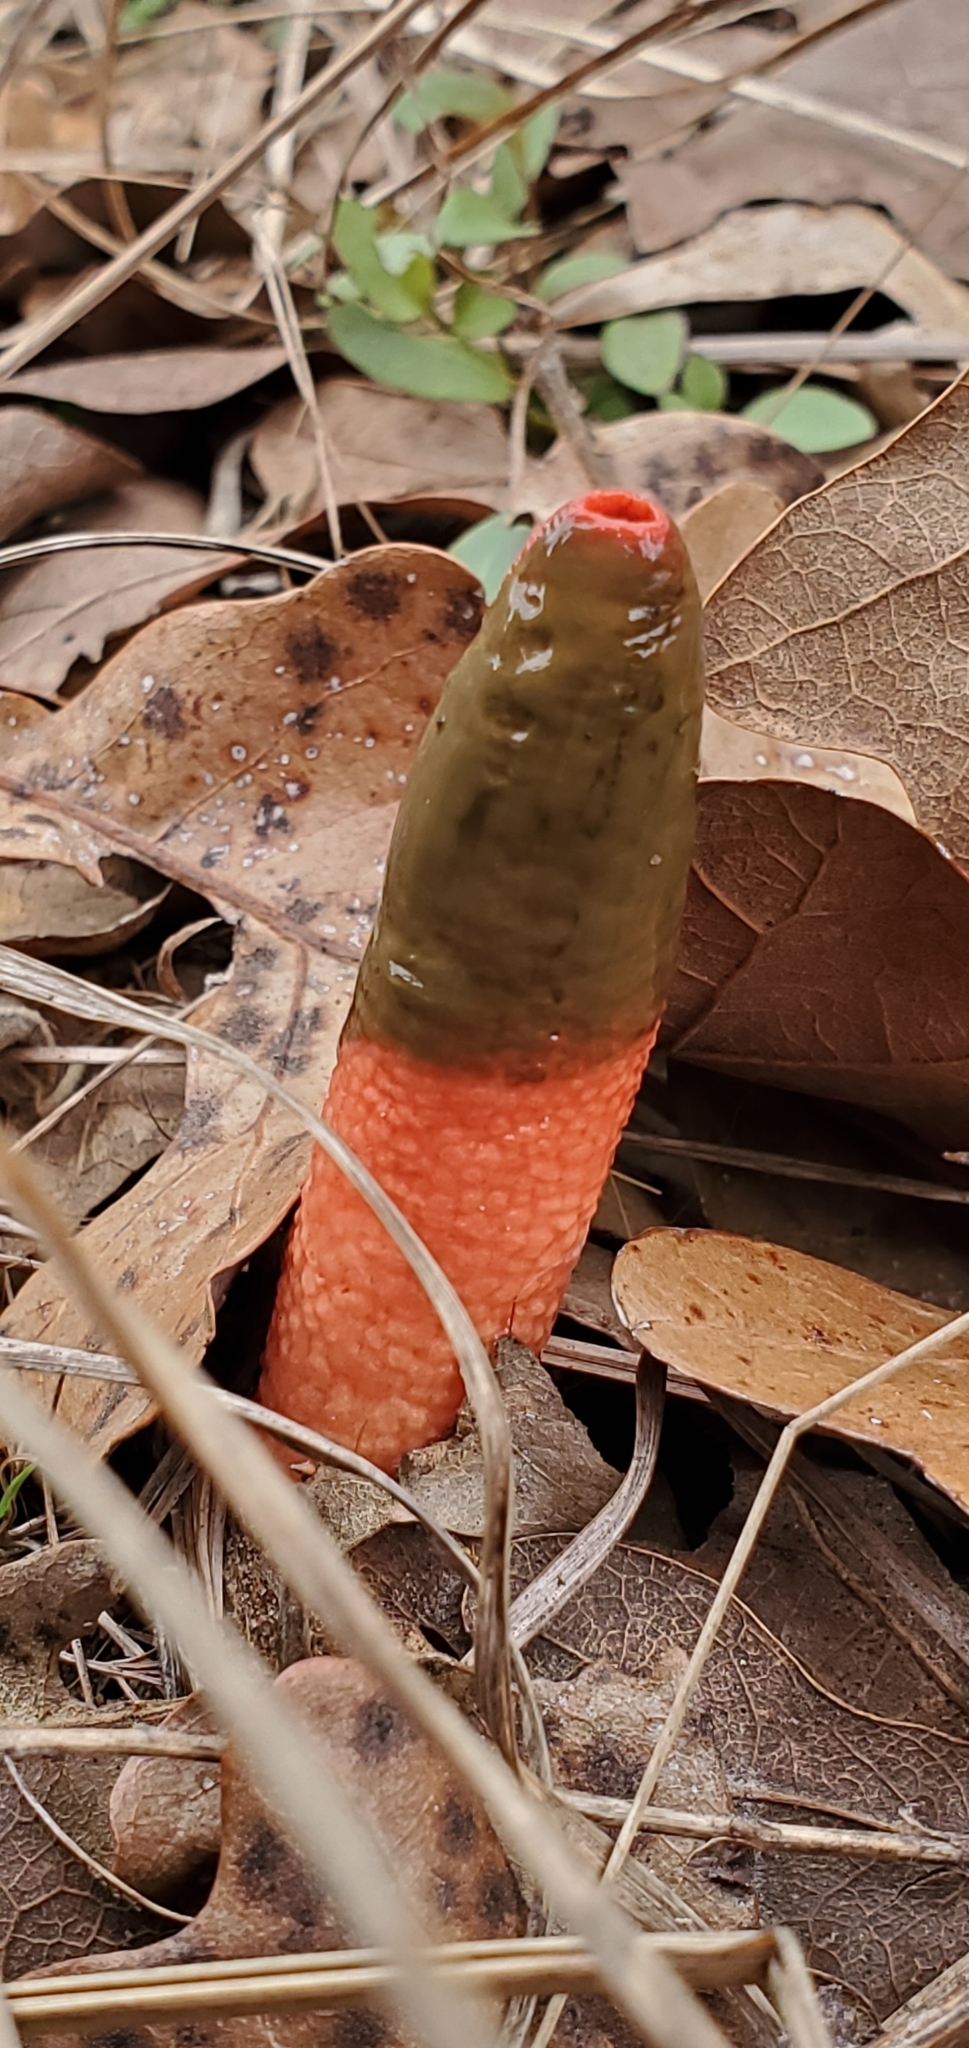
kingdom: Fungi
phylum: Basidiomycota
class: Agaricomycetes
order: Phallales
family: Phallaceae
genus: Mutinus
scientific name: Mutinus elegans
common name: Devil's dipstick
